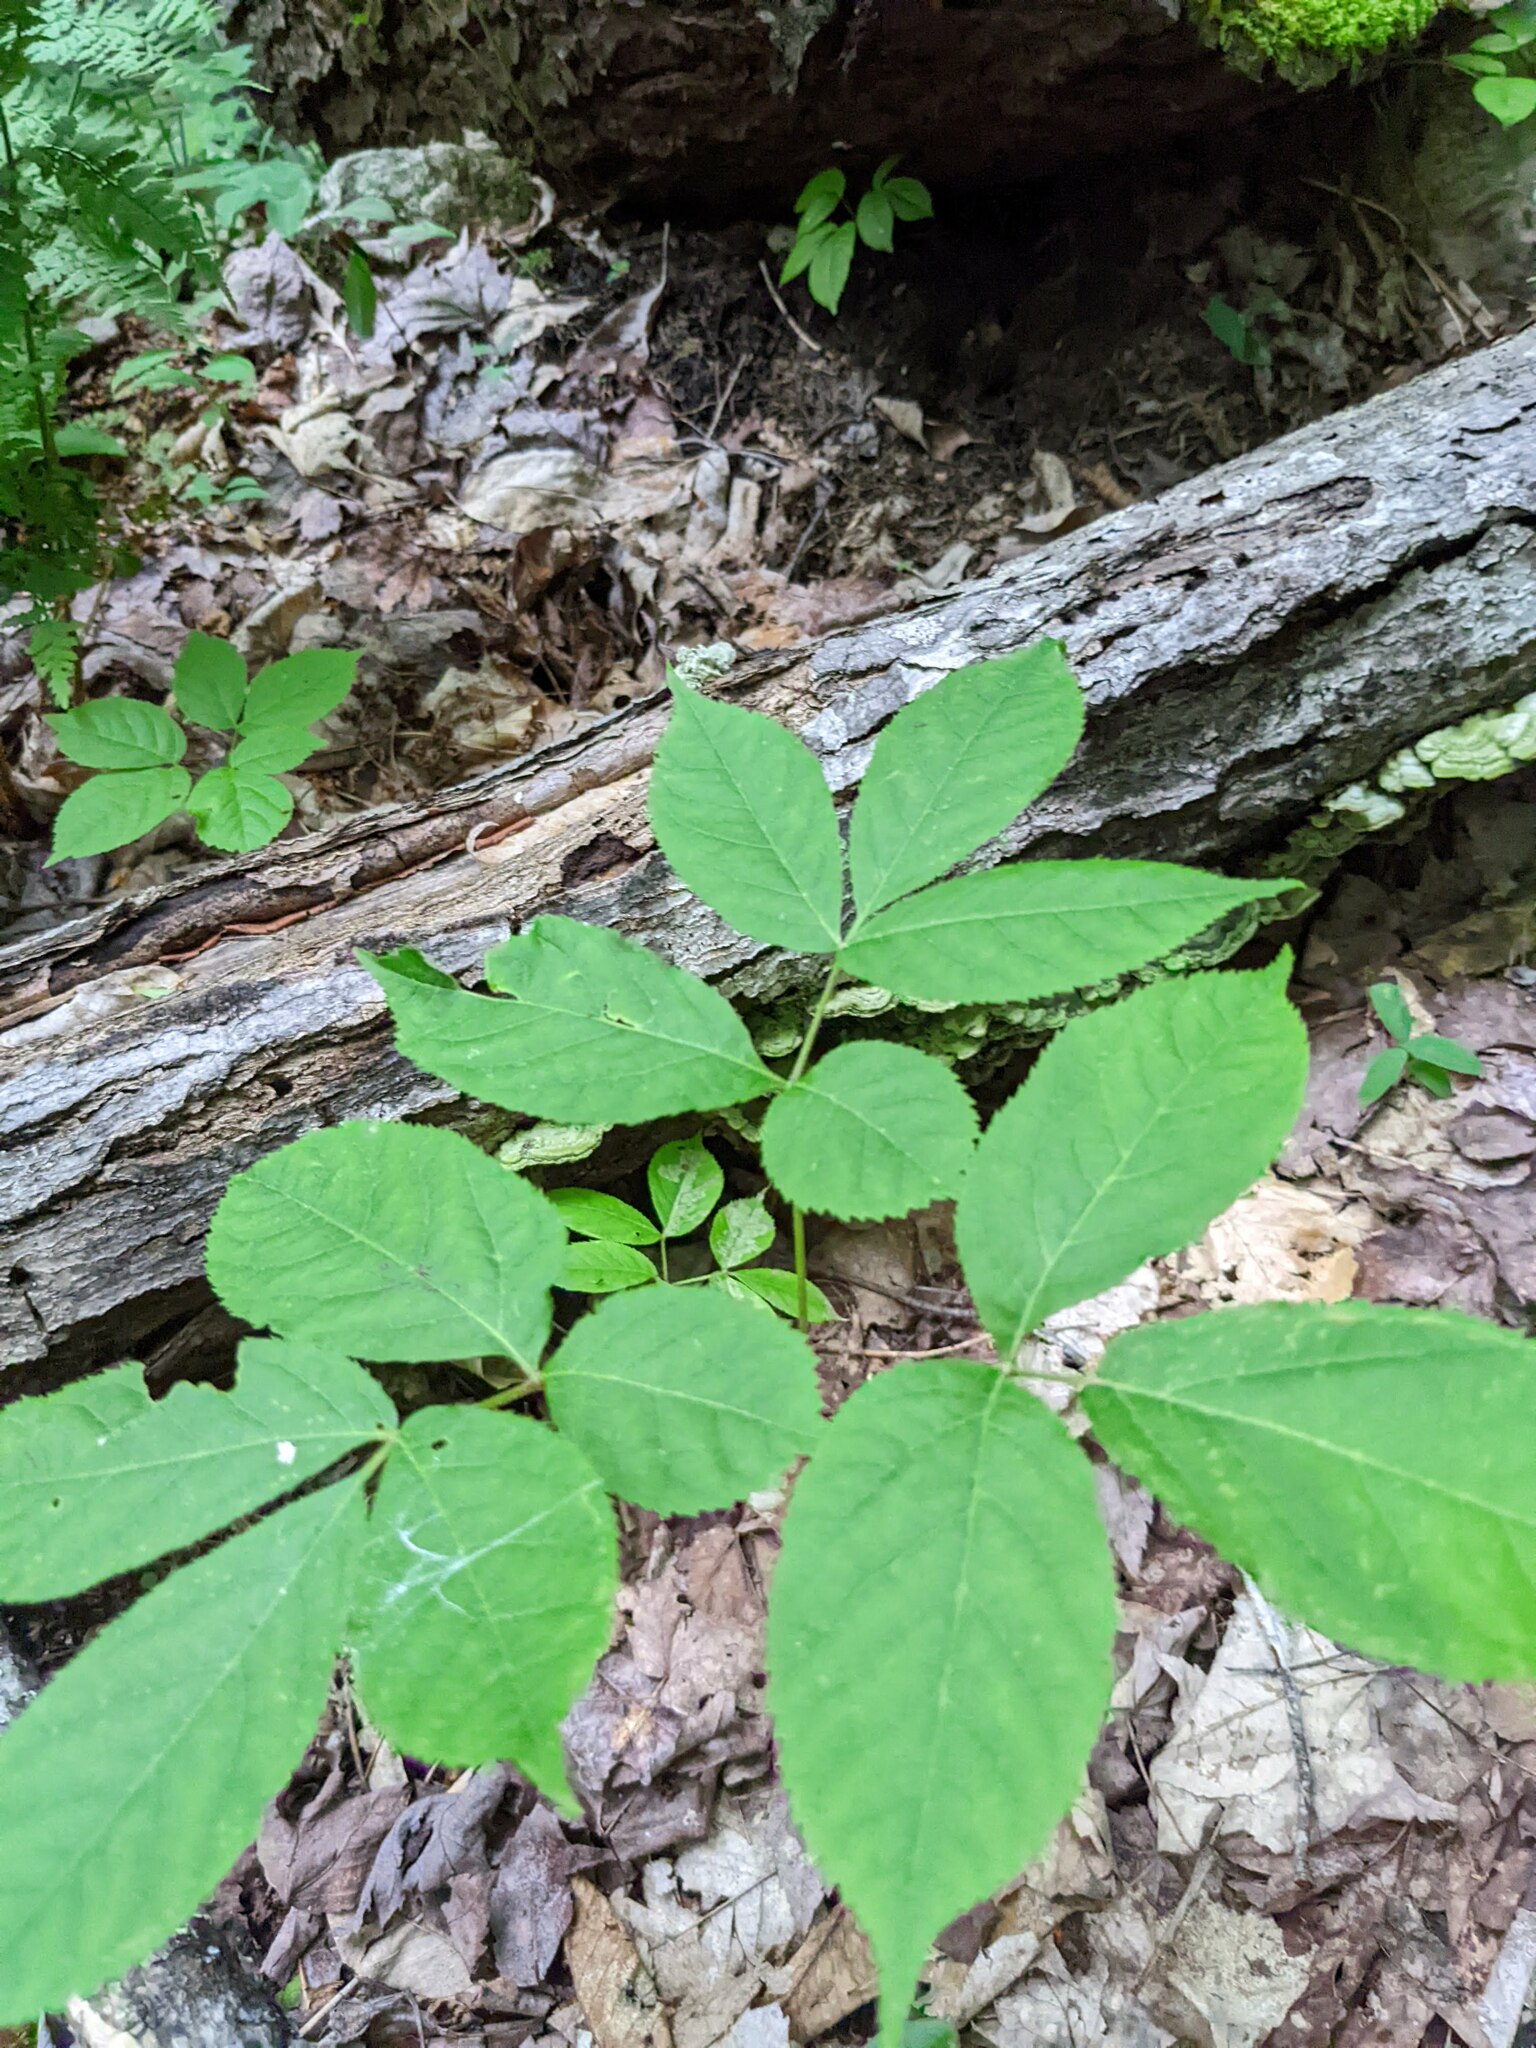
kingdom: Plantae
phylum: Tracheophyta
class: Magnoliopsida
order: Apiales
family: Araliaceae
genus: Aralia
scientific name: Aralia nudicaulis
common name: Wild sarsaparilla
